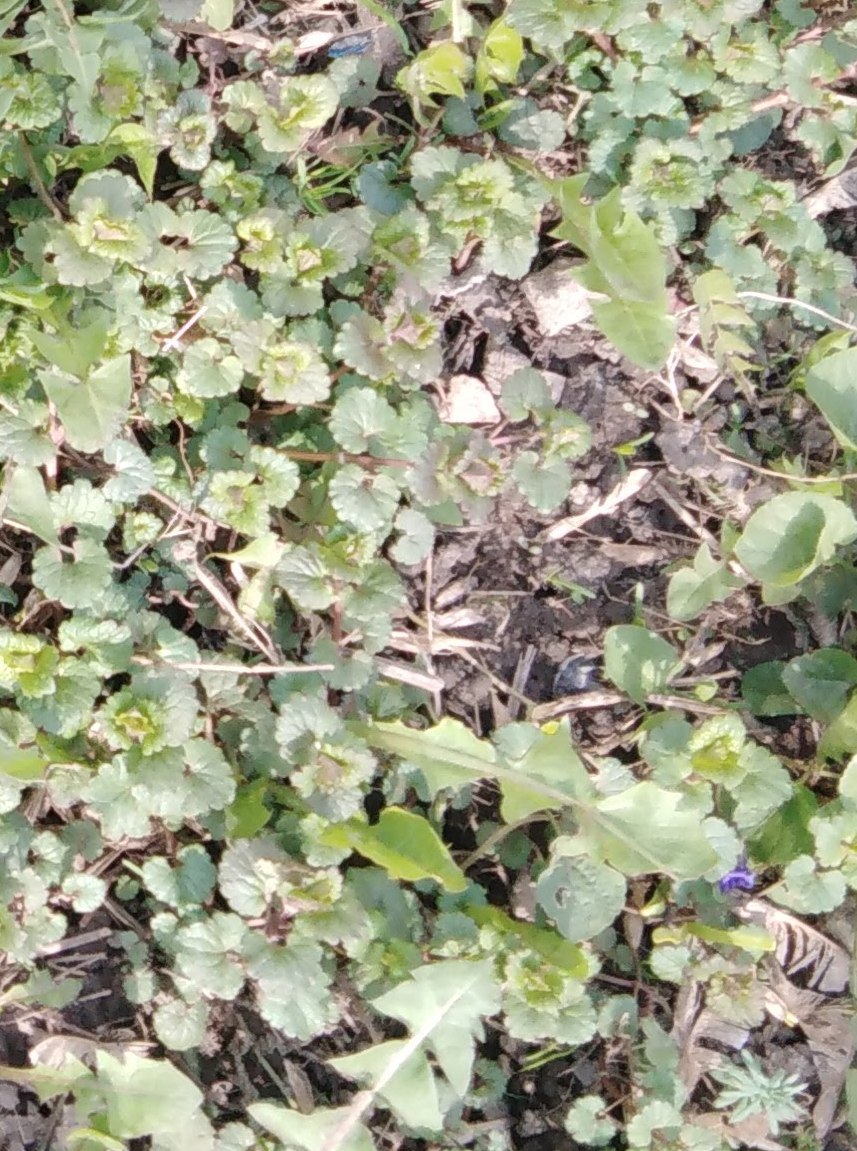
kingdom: Plantae
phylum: Tracheophyta
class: Magnoliopsida
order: Lamiales
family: Lamiaceae
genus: Glechoma
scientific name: Glechoma hederacea
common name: Ground ivy
